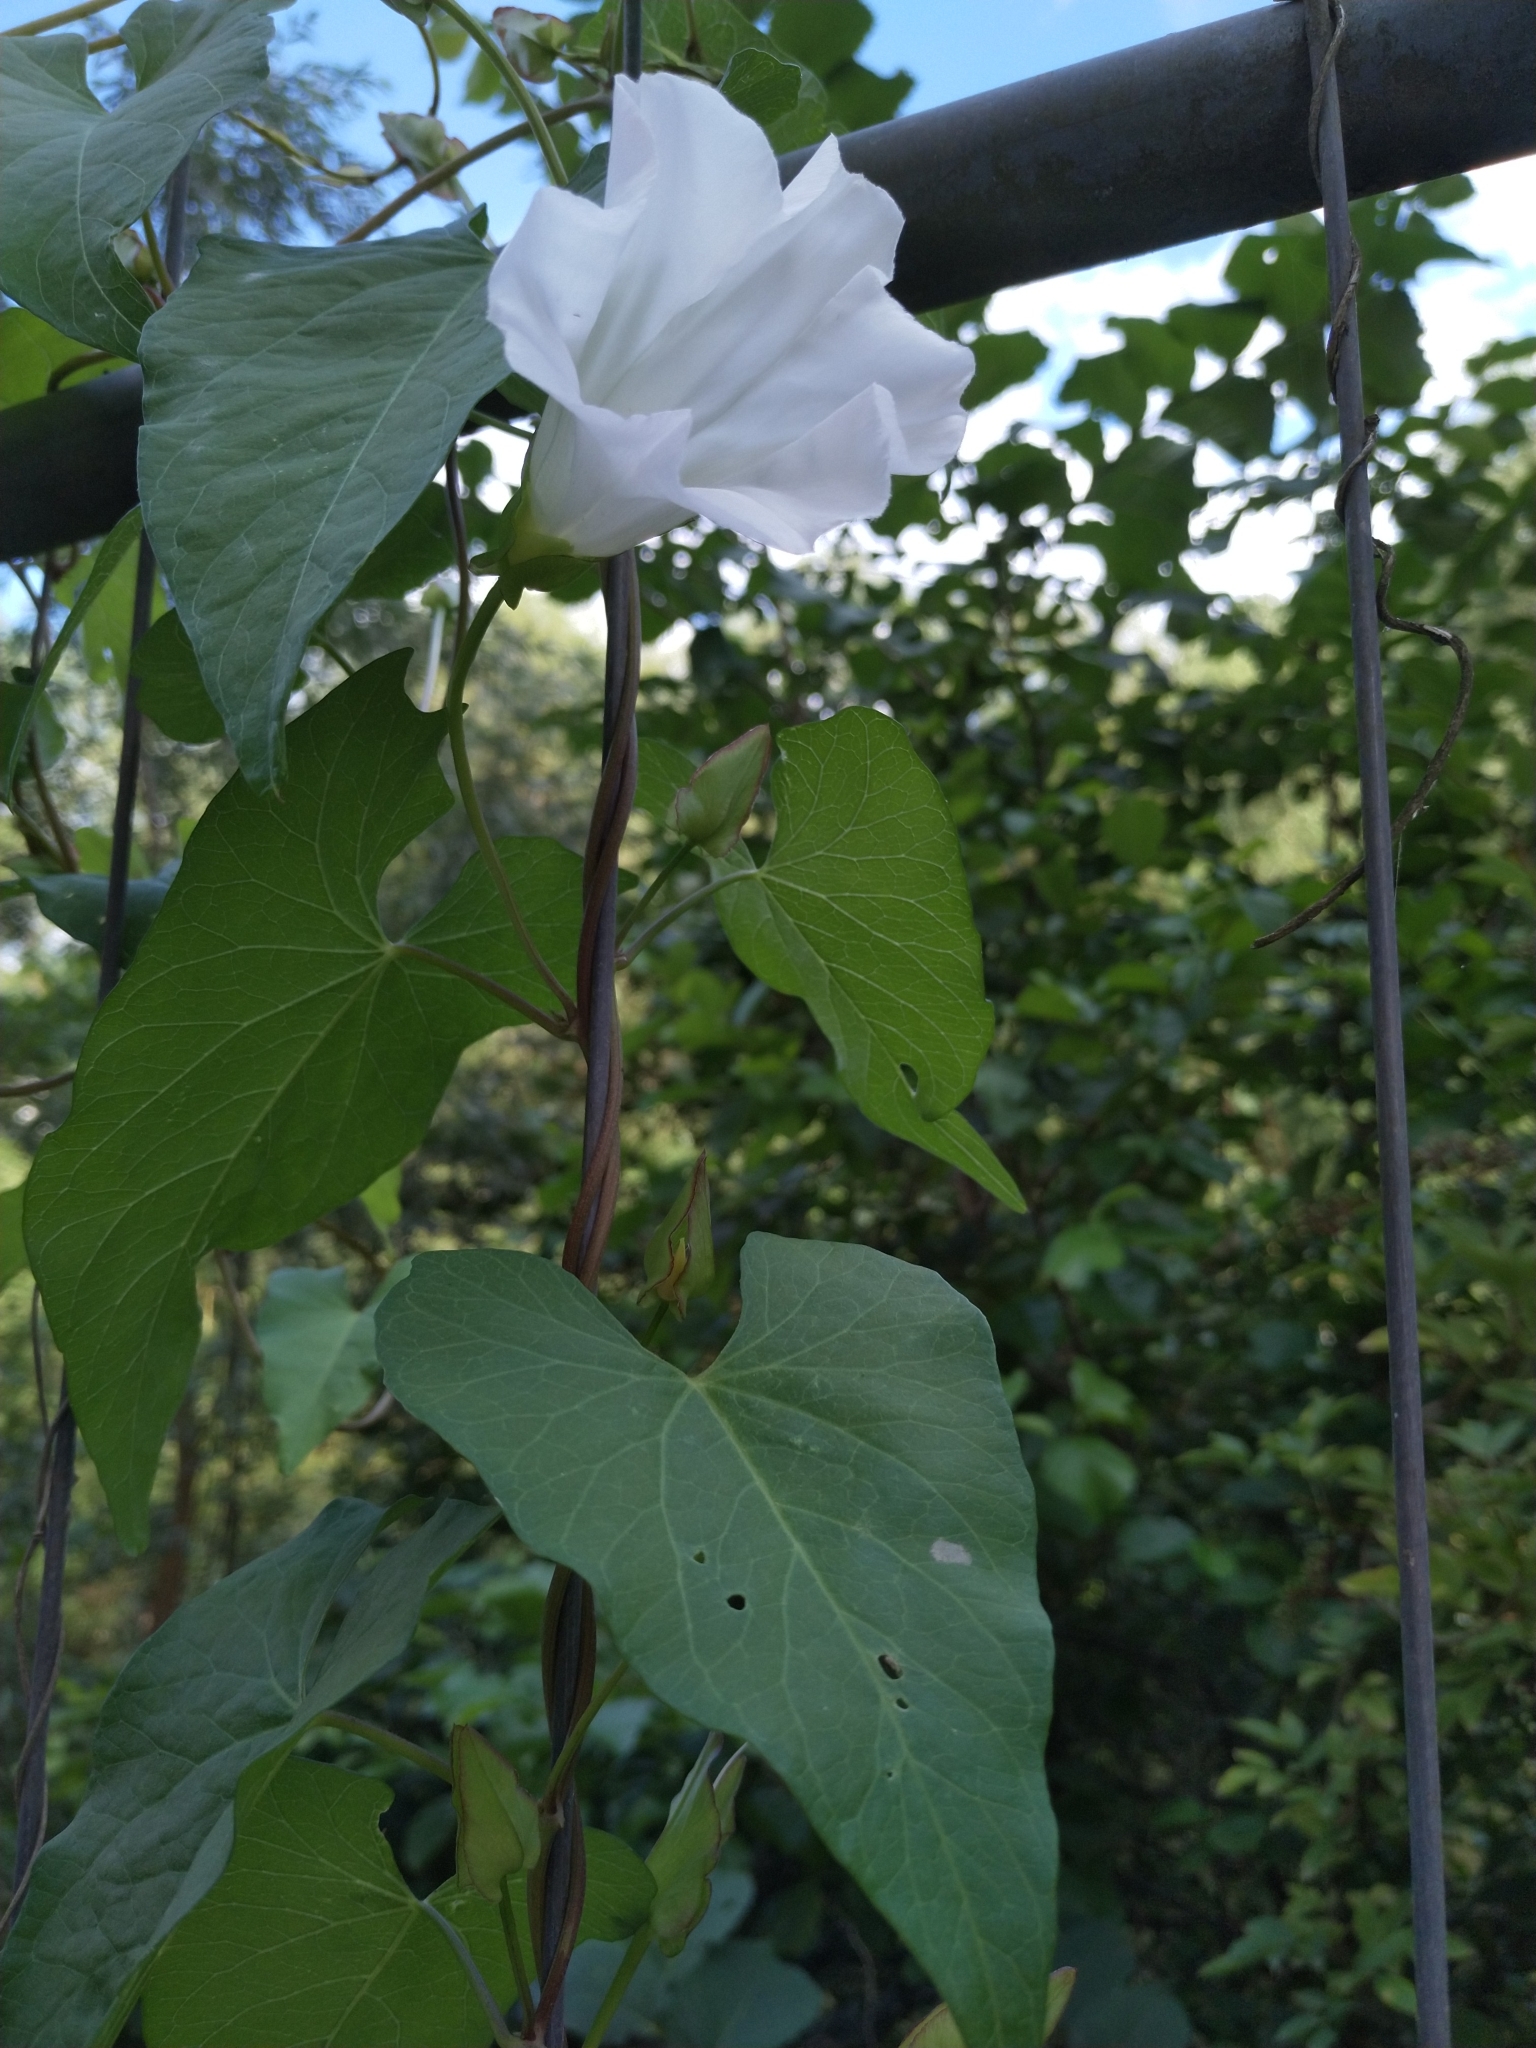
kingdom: Plantae
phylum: Tracheophyta
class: Magnoliopsida
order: Solanales
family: Convolvulaceae
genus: Calystegia
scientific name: Calystegia sepium
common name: Hedge bindweed
